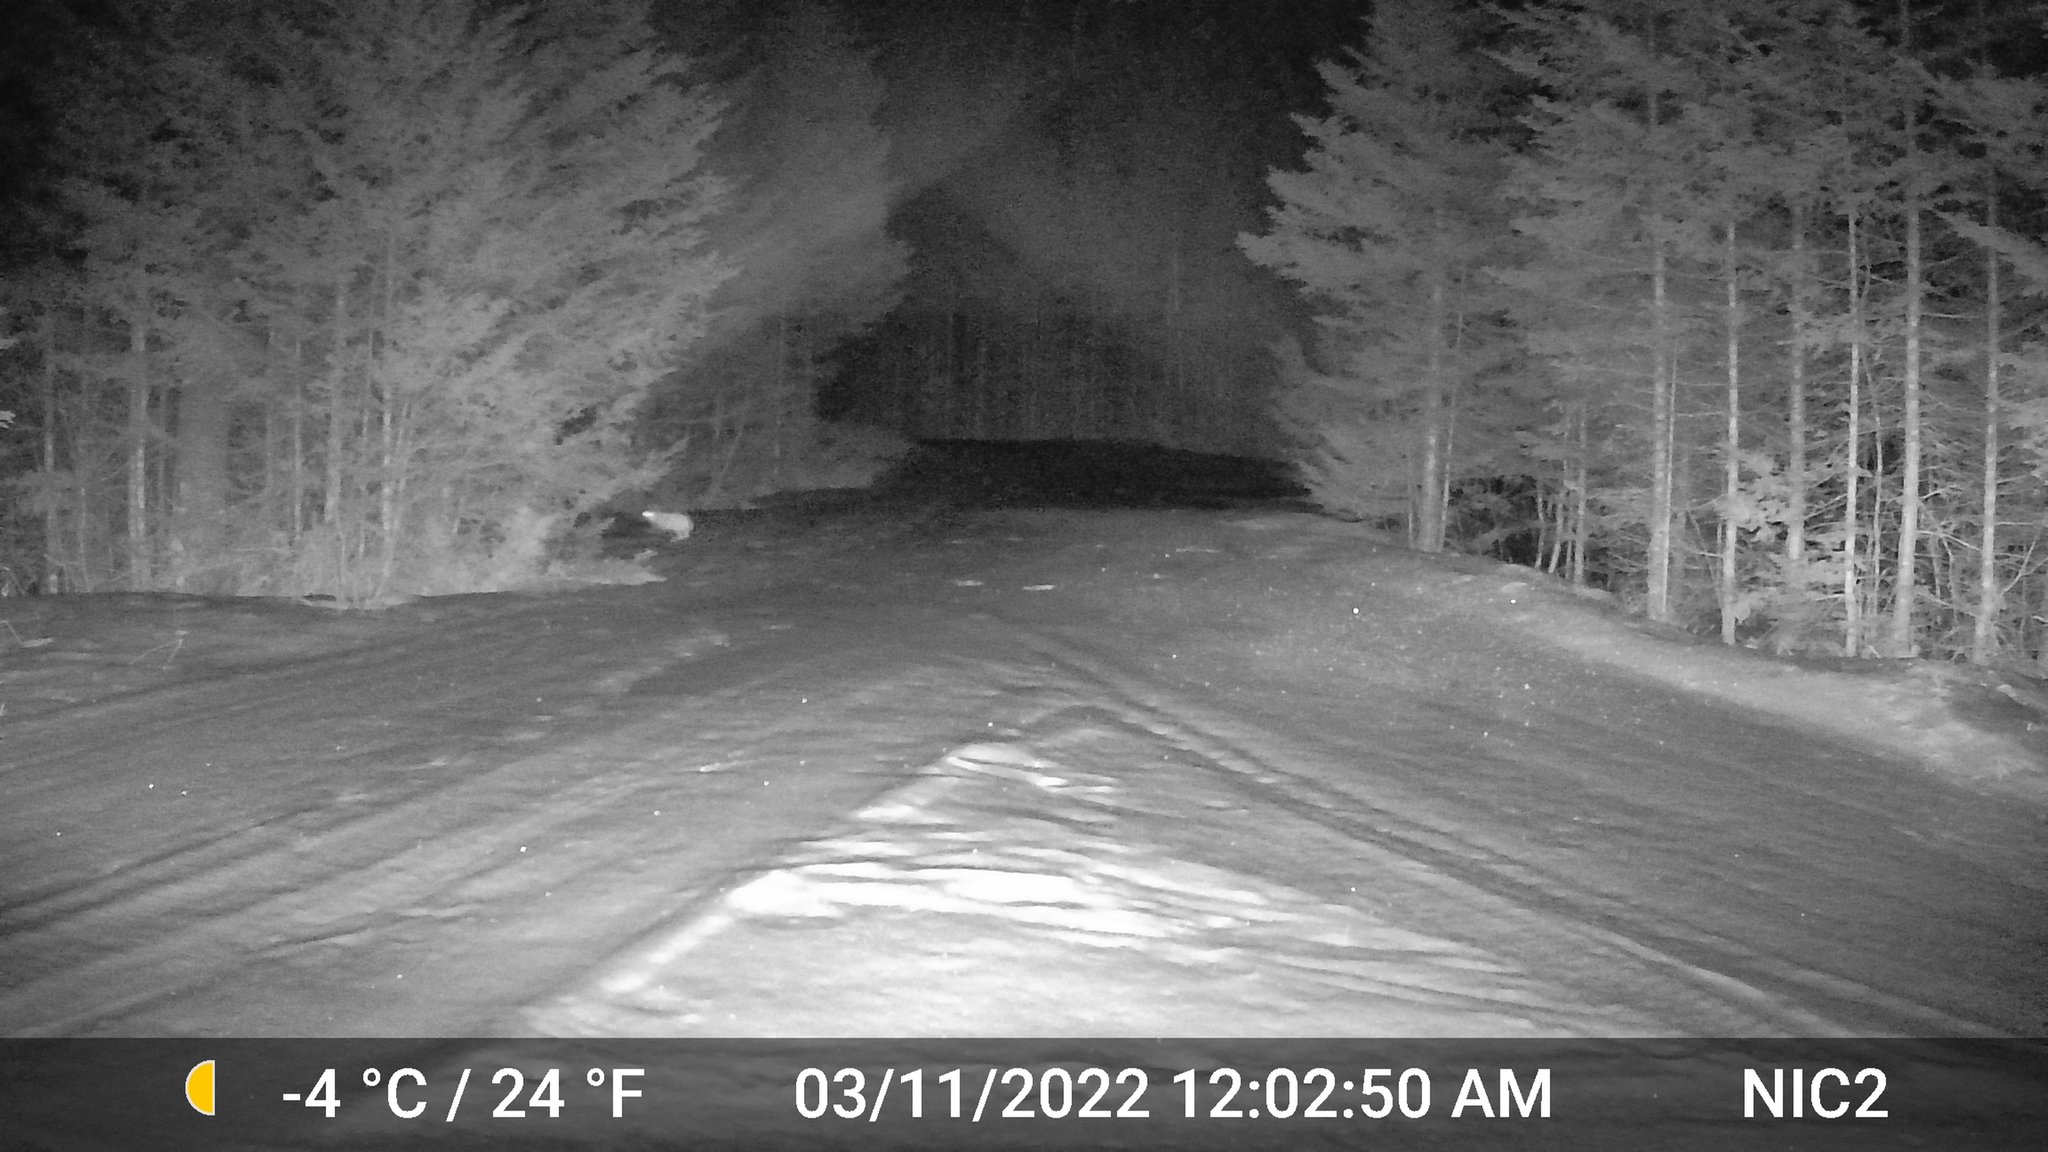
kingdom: Animalia
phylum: Chordata
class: Mammalia
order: Lagomorpha
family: Leporidae
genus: Lepus
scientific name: Lepus americanus
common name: Snowshoe hare
